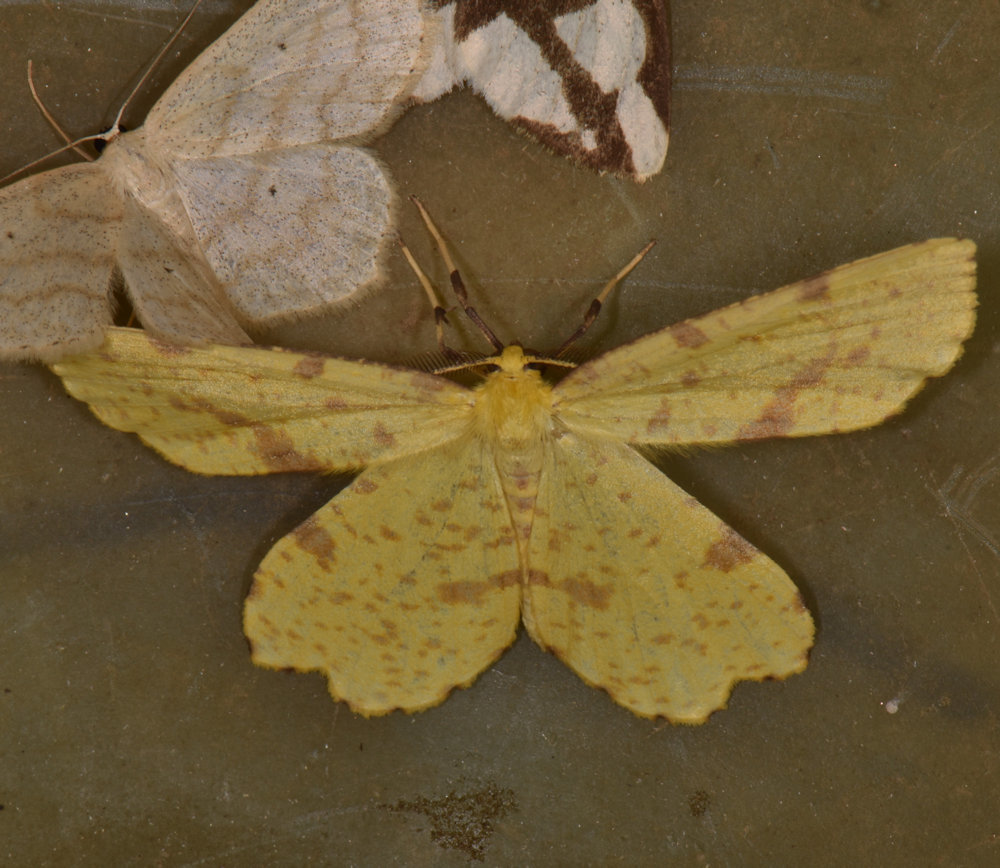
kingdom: Animalia
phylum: Arthropoda
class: Insecta
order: Lepidoptera
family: Geometridae
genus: Xanthotype
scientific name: Xanthotype
